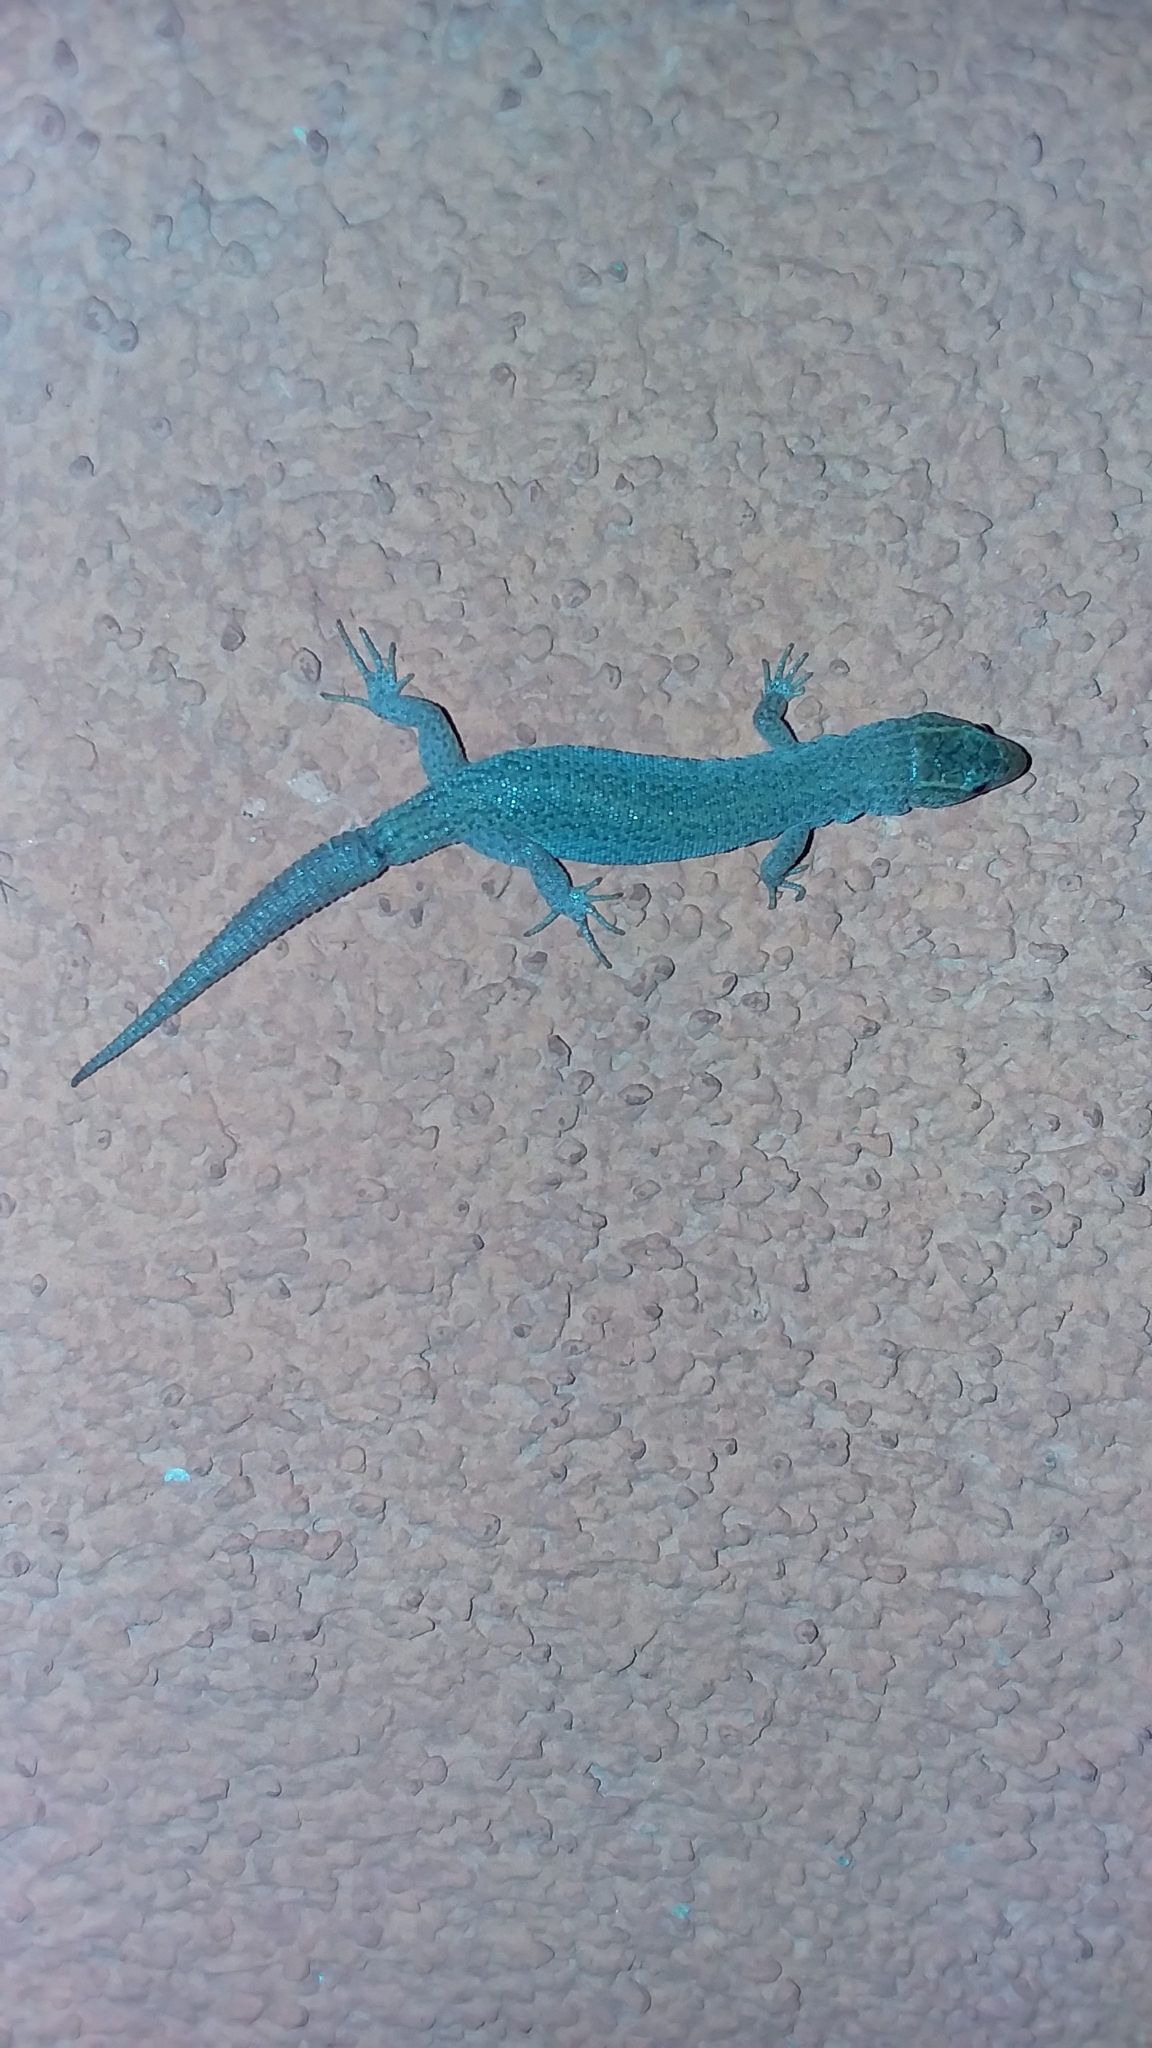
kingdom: Animalia
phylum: Chordata
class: Squamata
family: Xantusiidae
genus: Xantusia
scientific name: Xantusia vigilis
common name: Desert night lizard
